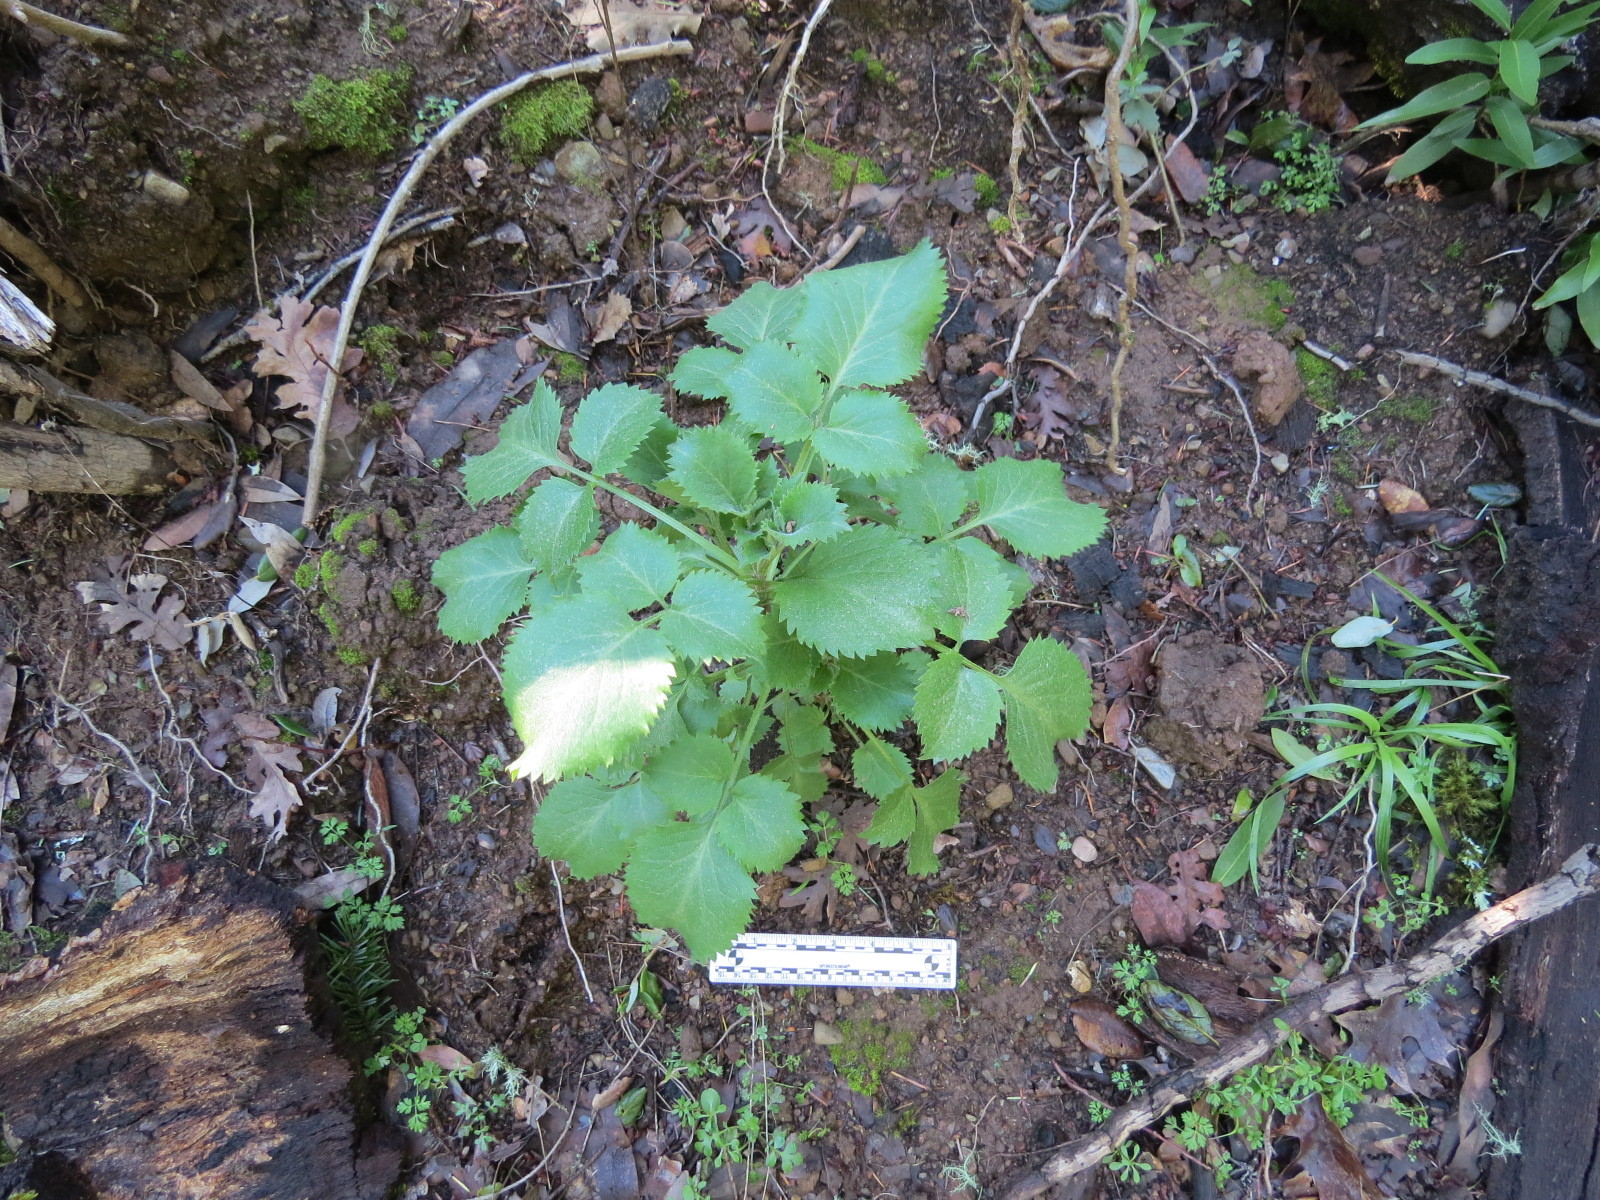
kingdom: Plantae
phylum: Tracheophyta
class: Magnoliopsida
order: Dipsacales
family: Viburnaceae
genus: Sambucus
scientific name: Sambucus cerulea
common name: Blue elder
